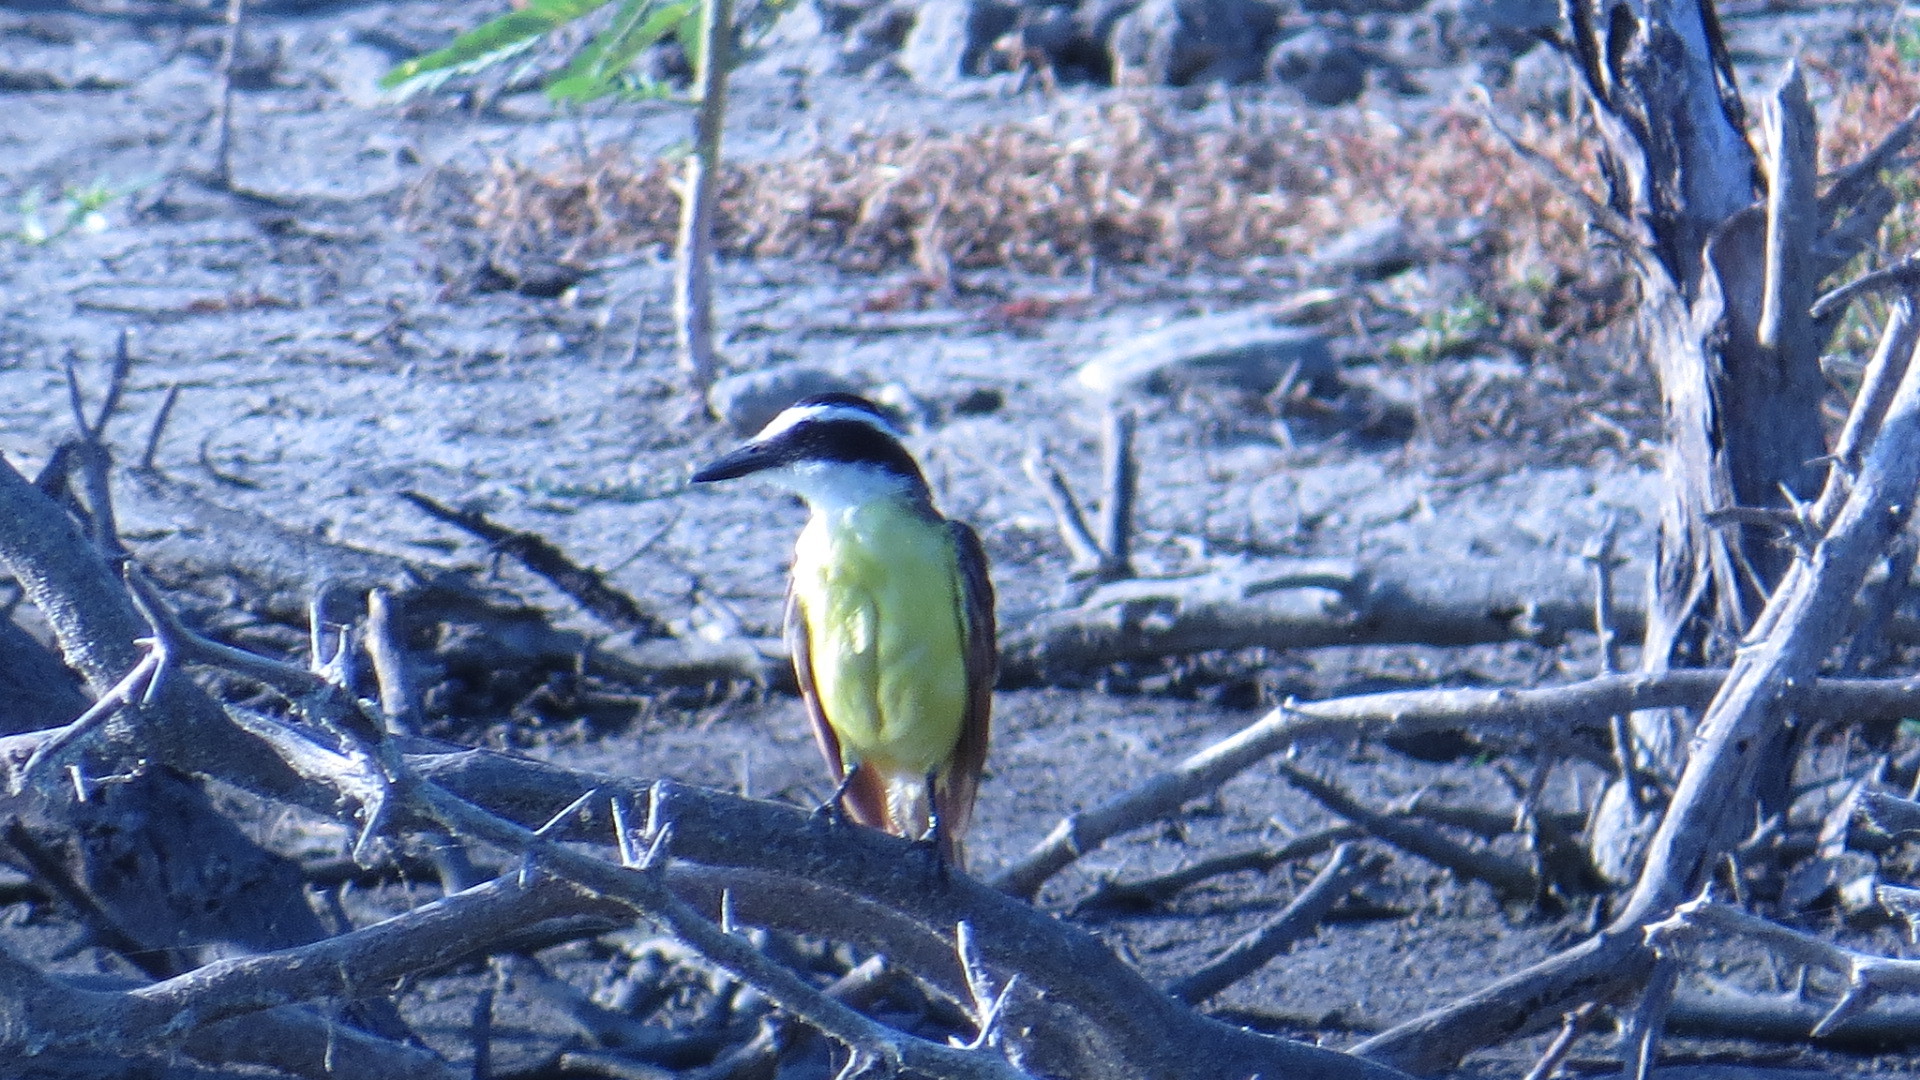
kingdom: Animalia
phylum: Chordata
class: Aves
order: Passeriformes
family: Tyrannidae
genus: Pitangus
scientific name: Pitangus sulphuratus
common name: Great kiskadee
